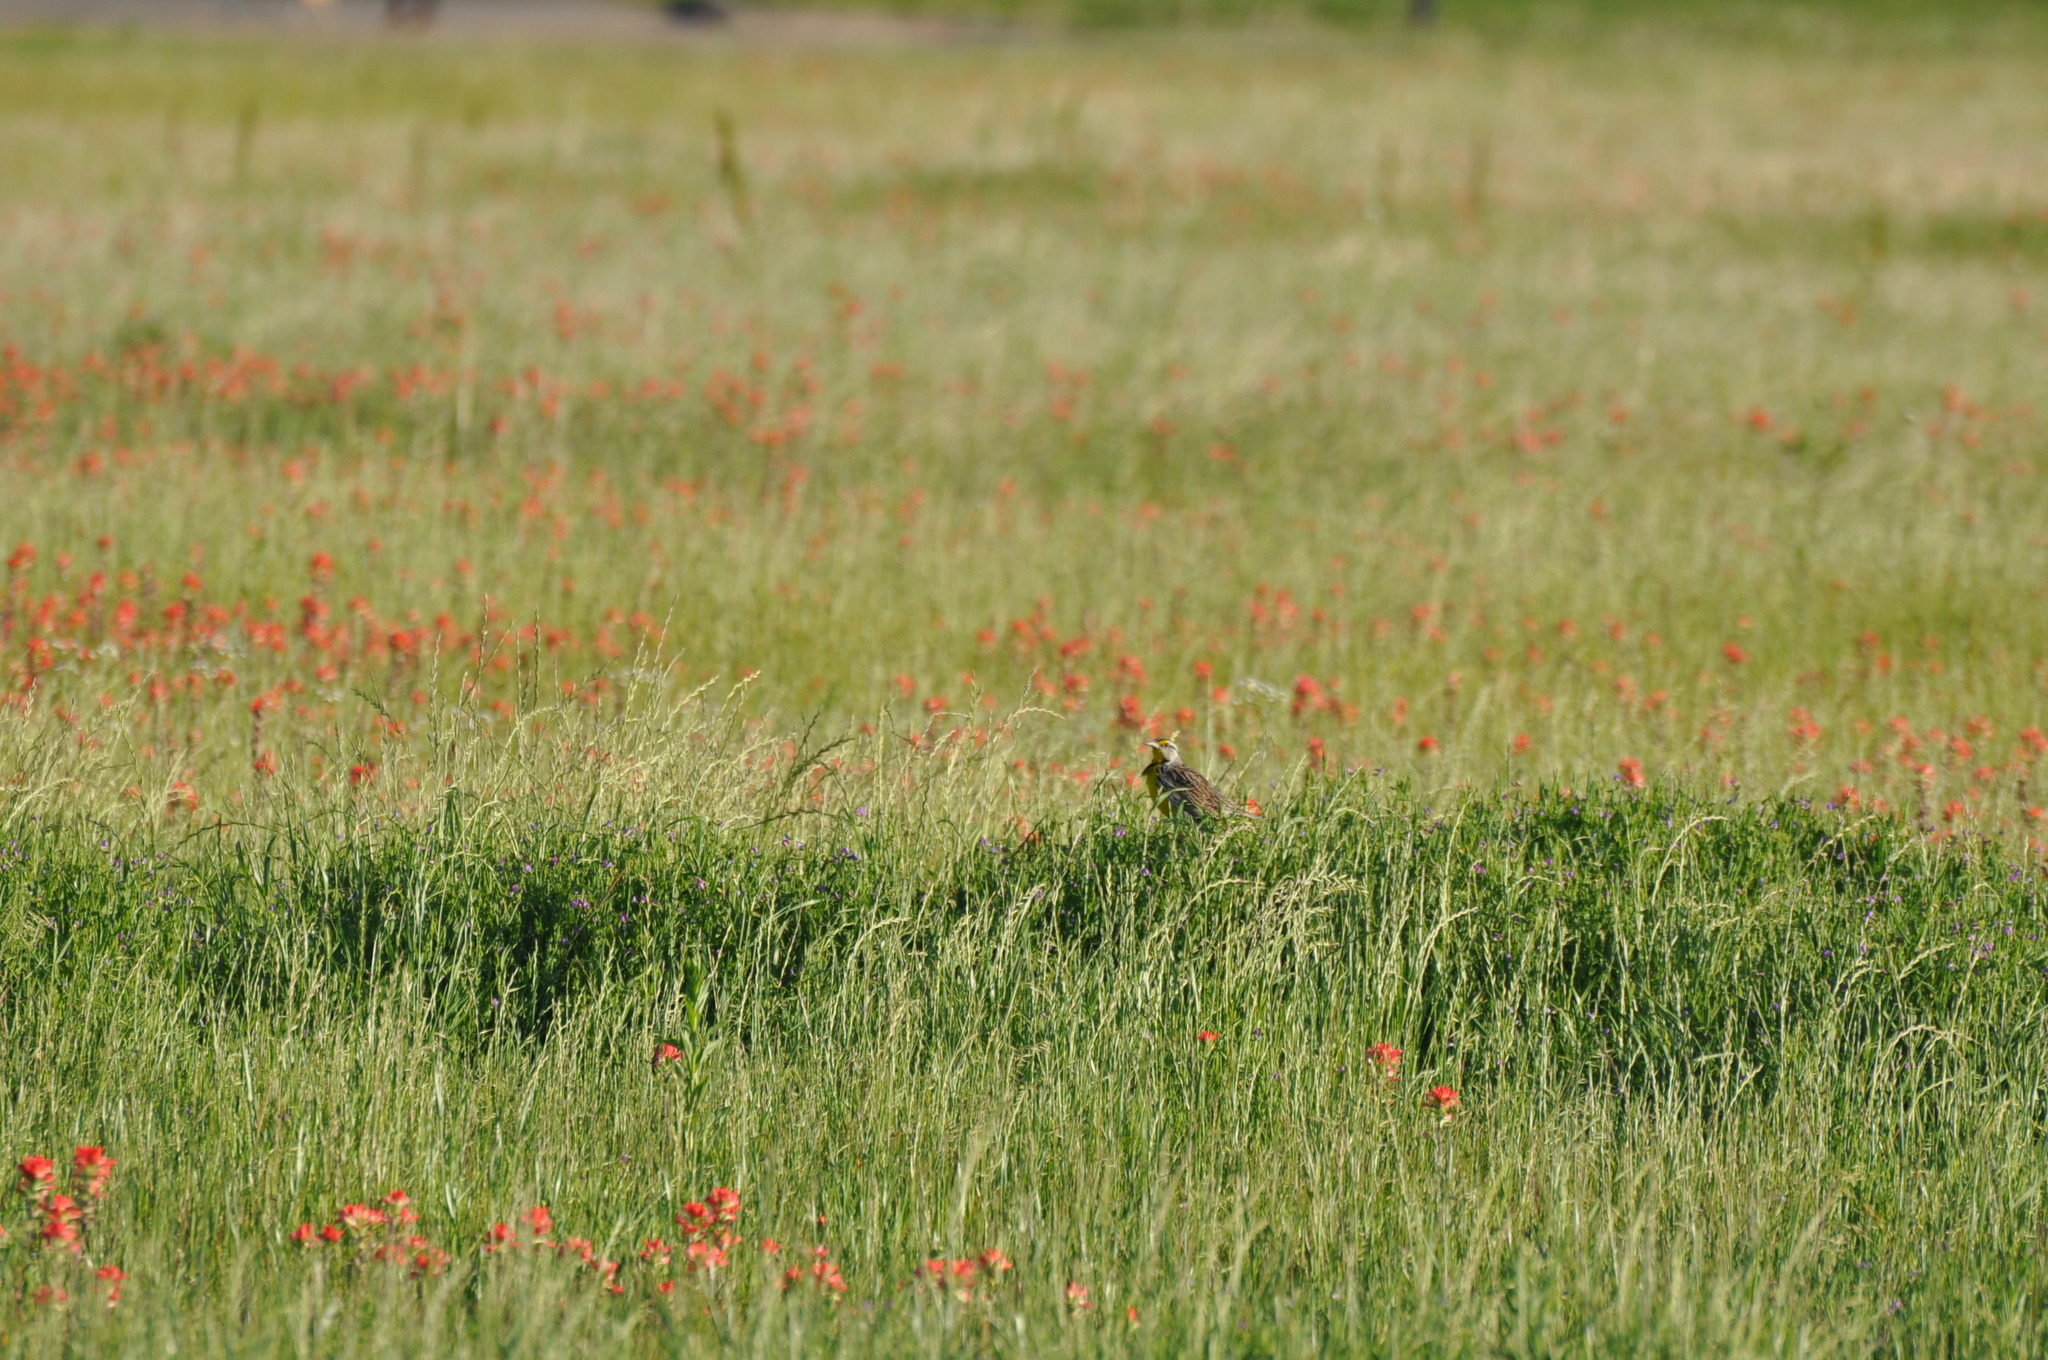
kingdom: Animalia
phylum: Chordata
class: Aves
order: Passeriformes
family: Icteridae
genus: Sturnella
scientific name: Sturnella magna
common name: Eastern meadowlark
